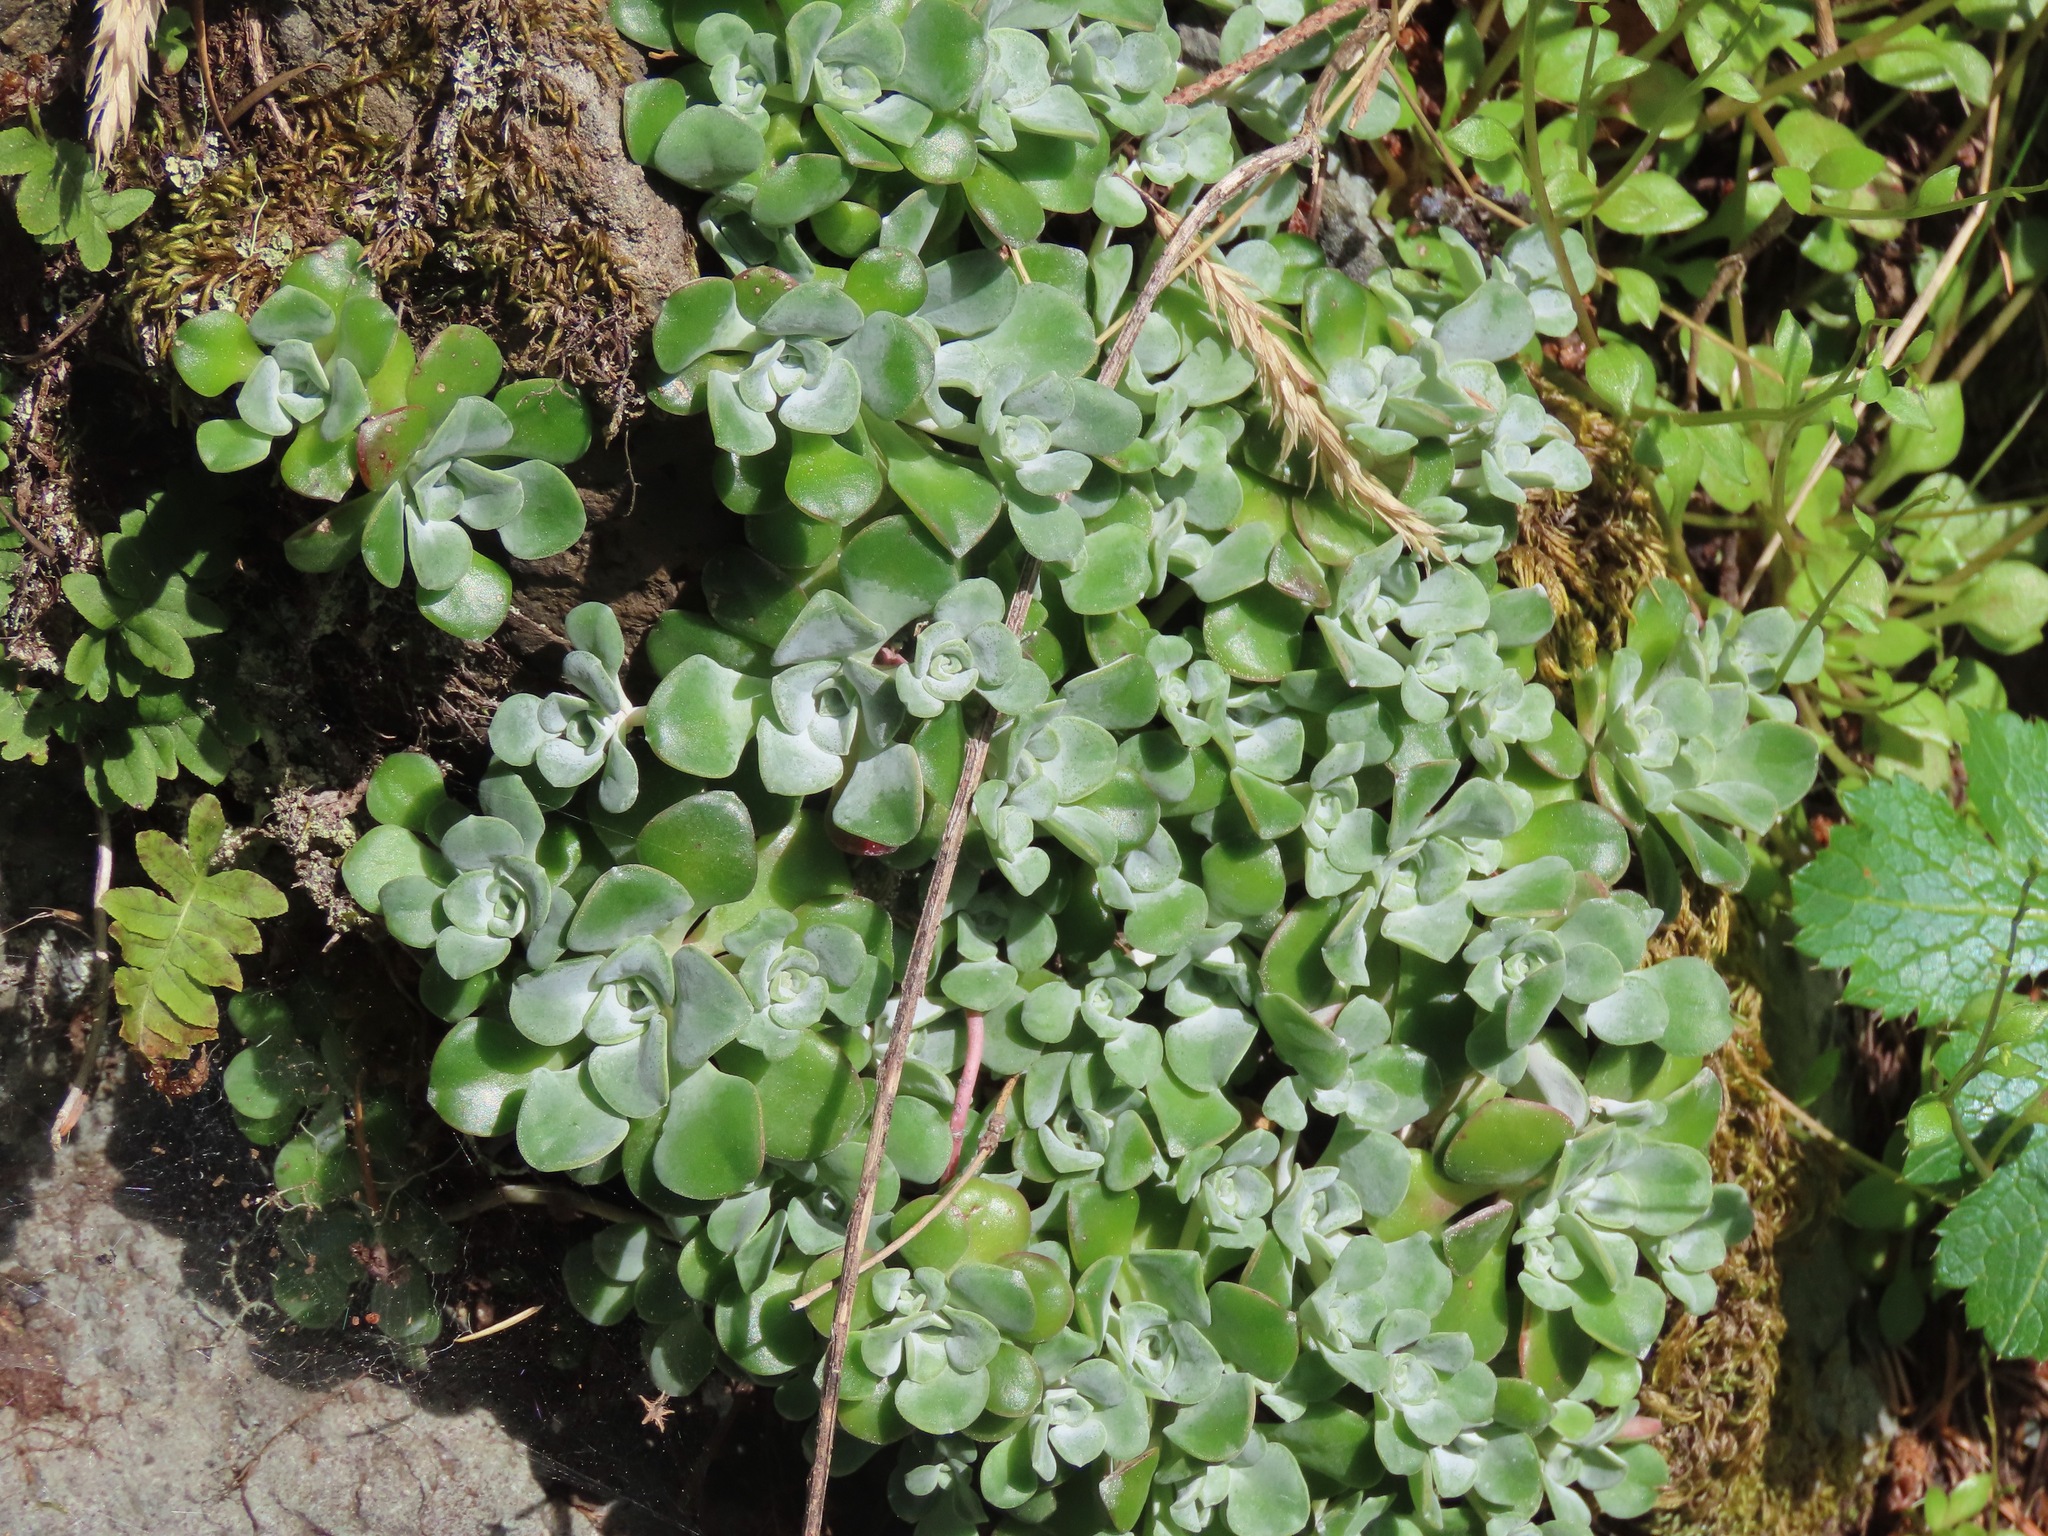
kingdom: Plantae
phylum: Tracheophyta
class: Magnoliopsida
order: Saxifragales
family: Crassulaceae
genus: Sedum
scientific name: Sedum spathulifolium
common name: Colorado stonecrop
